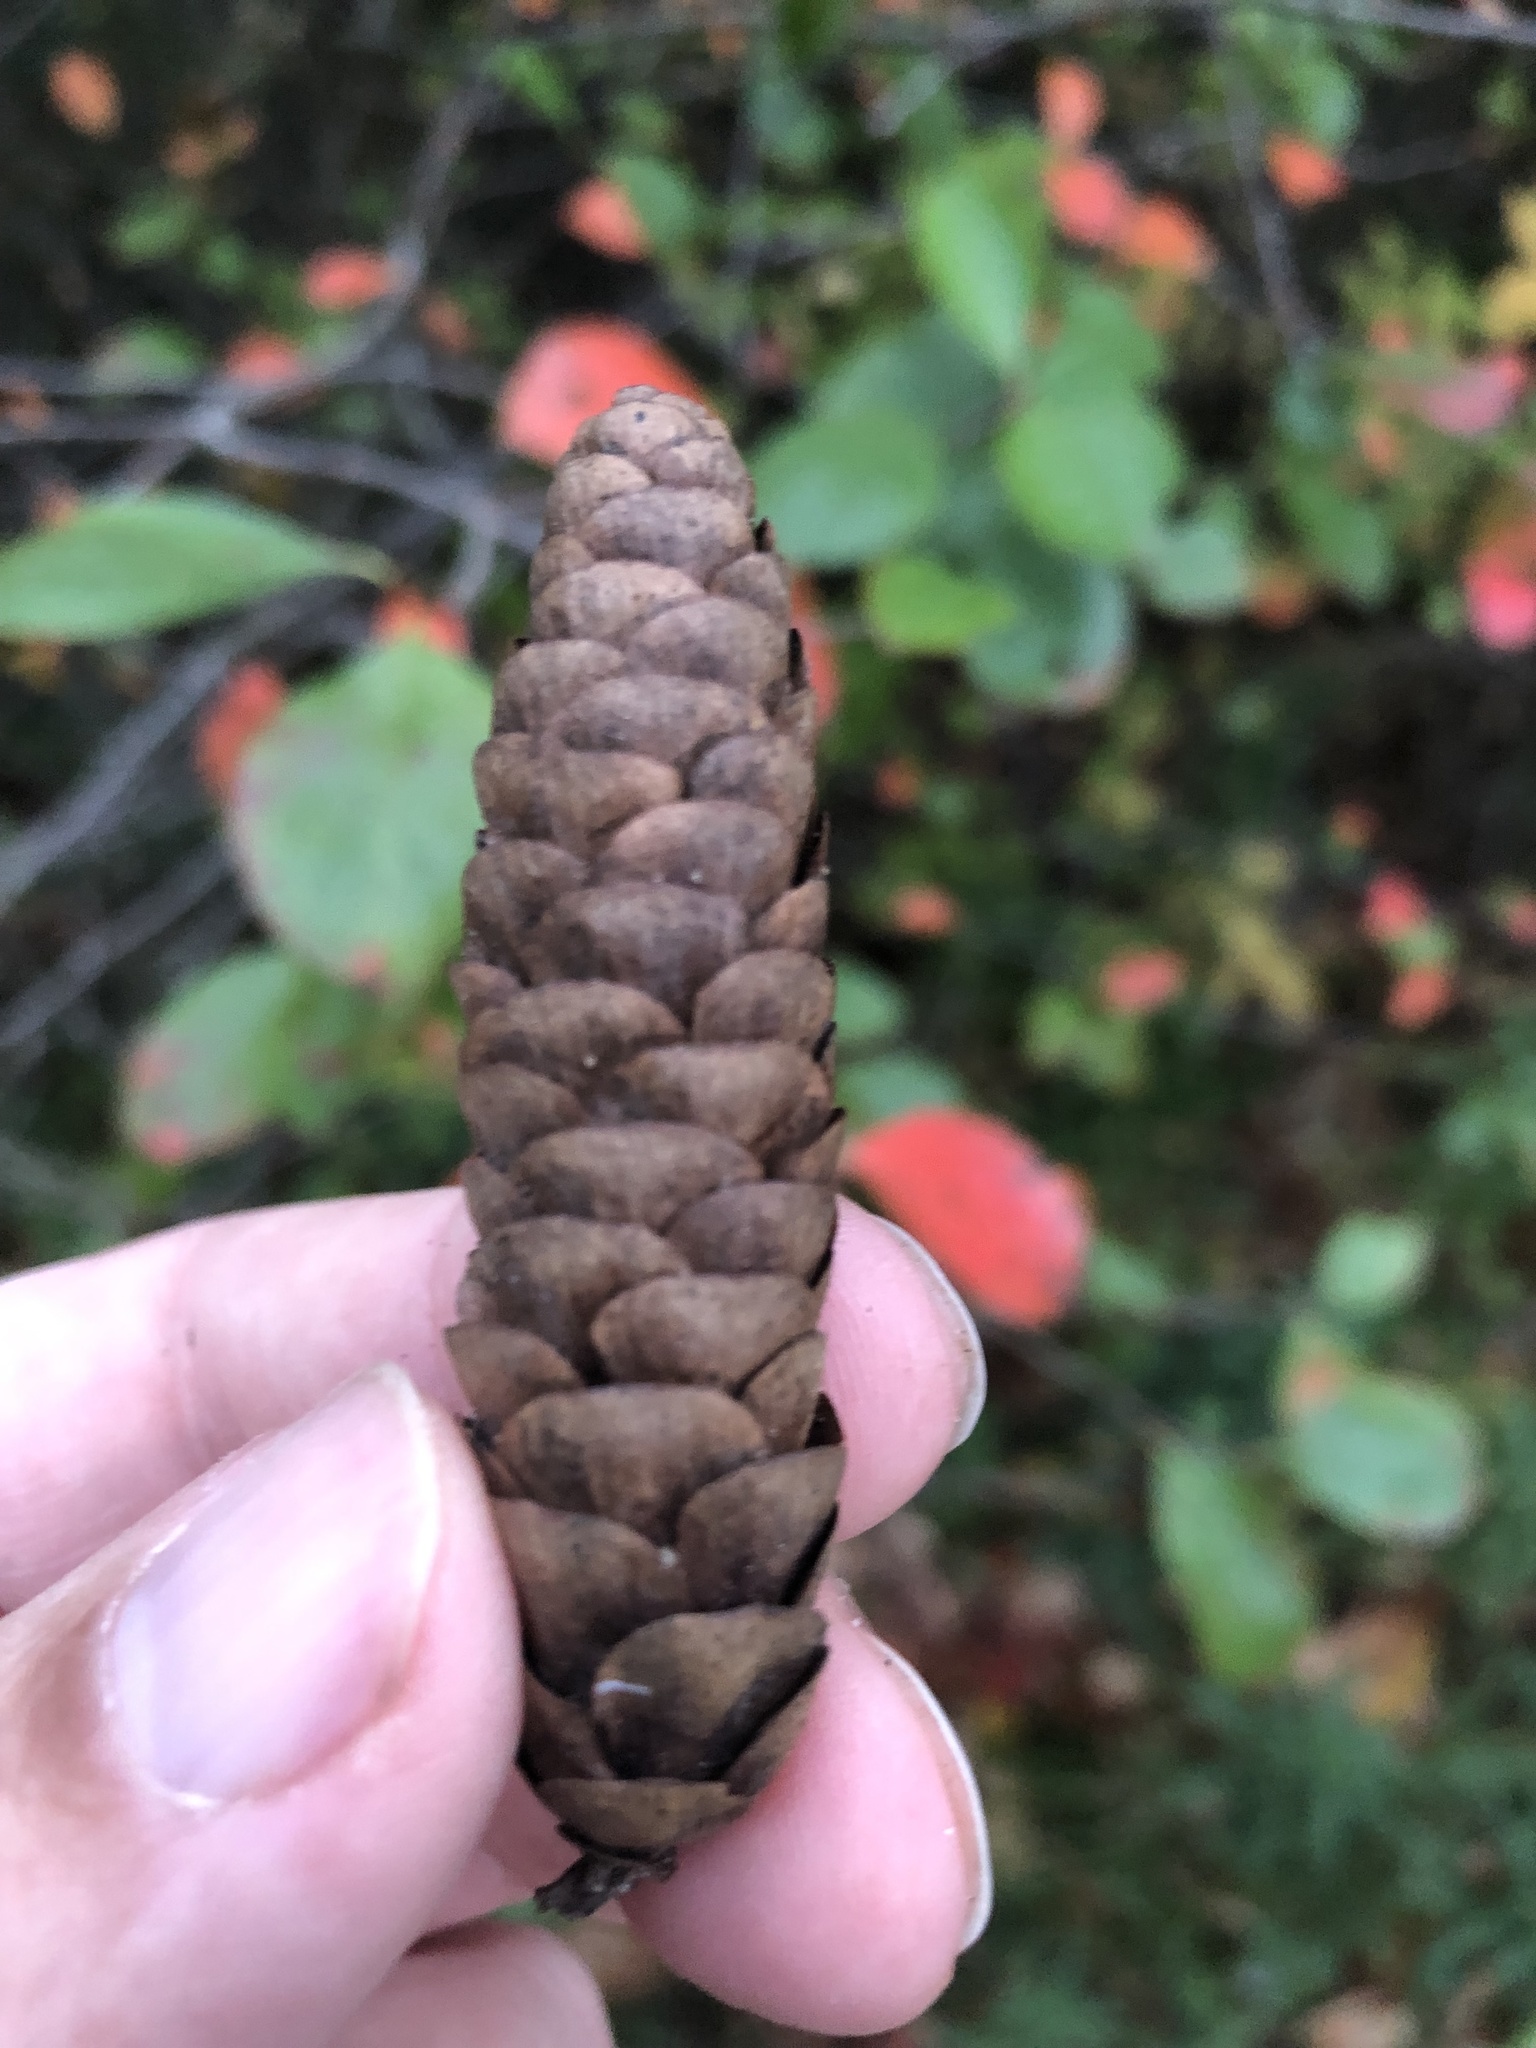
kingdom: Plantae
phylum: Tracheophyta
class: Pinopsida
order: Pinales
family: Pinaceae
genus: Picea
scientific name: Picea glauca
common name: White spruce
